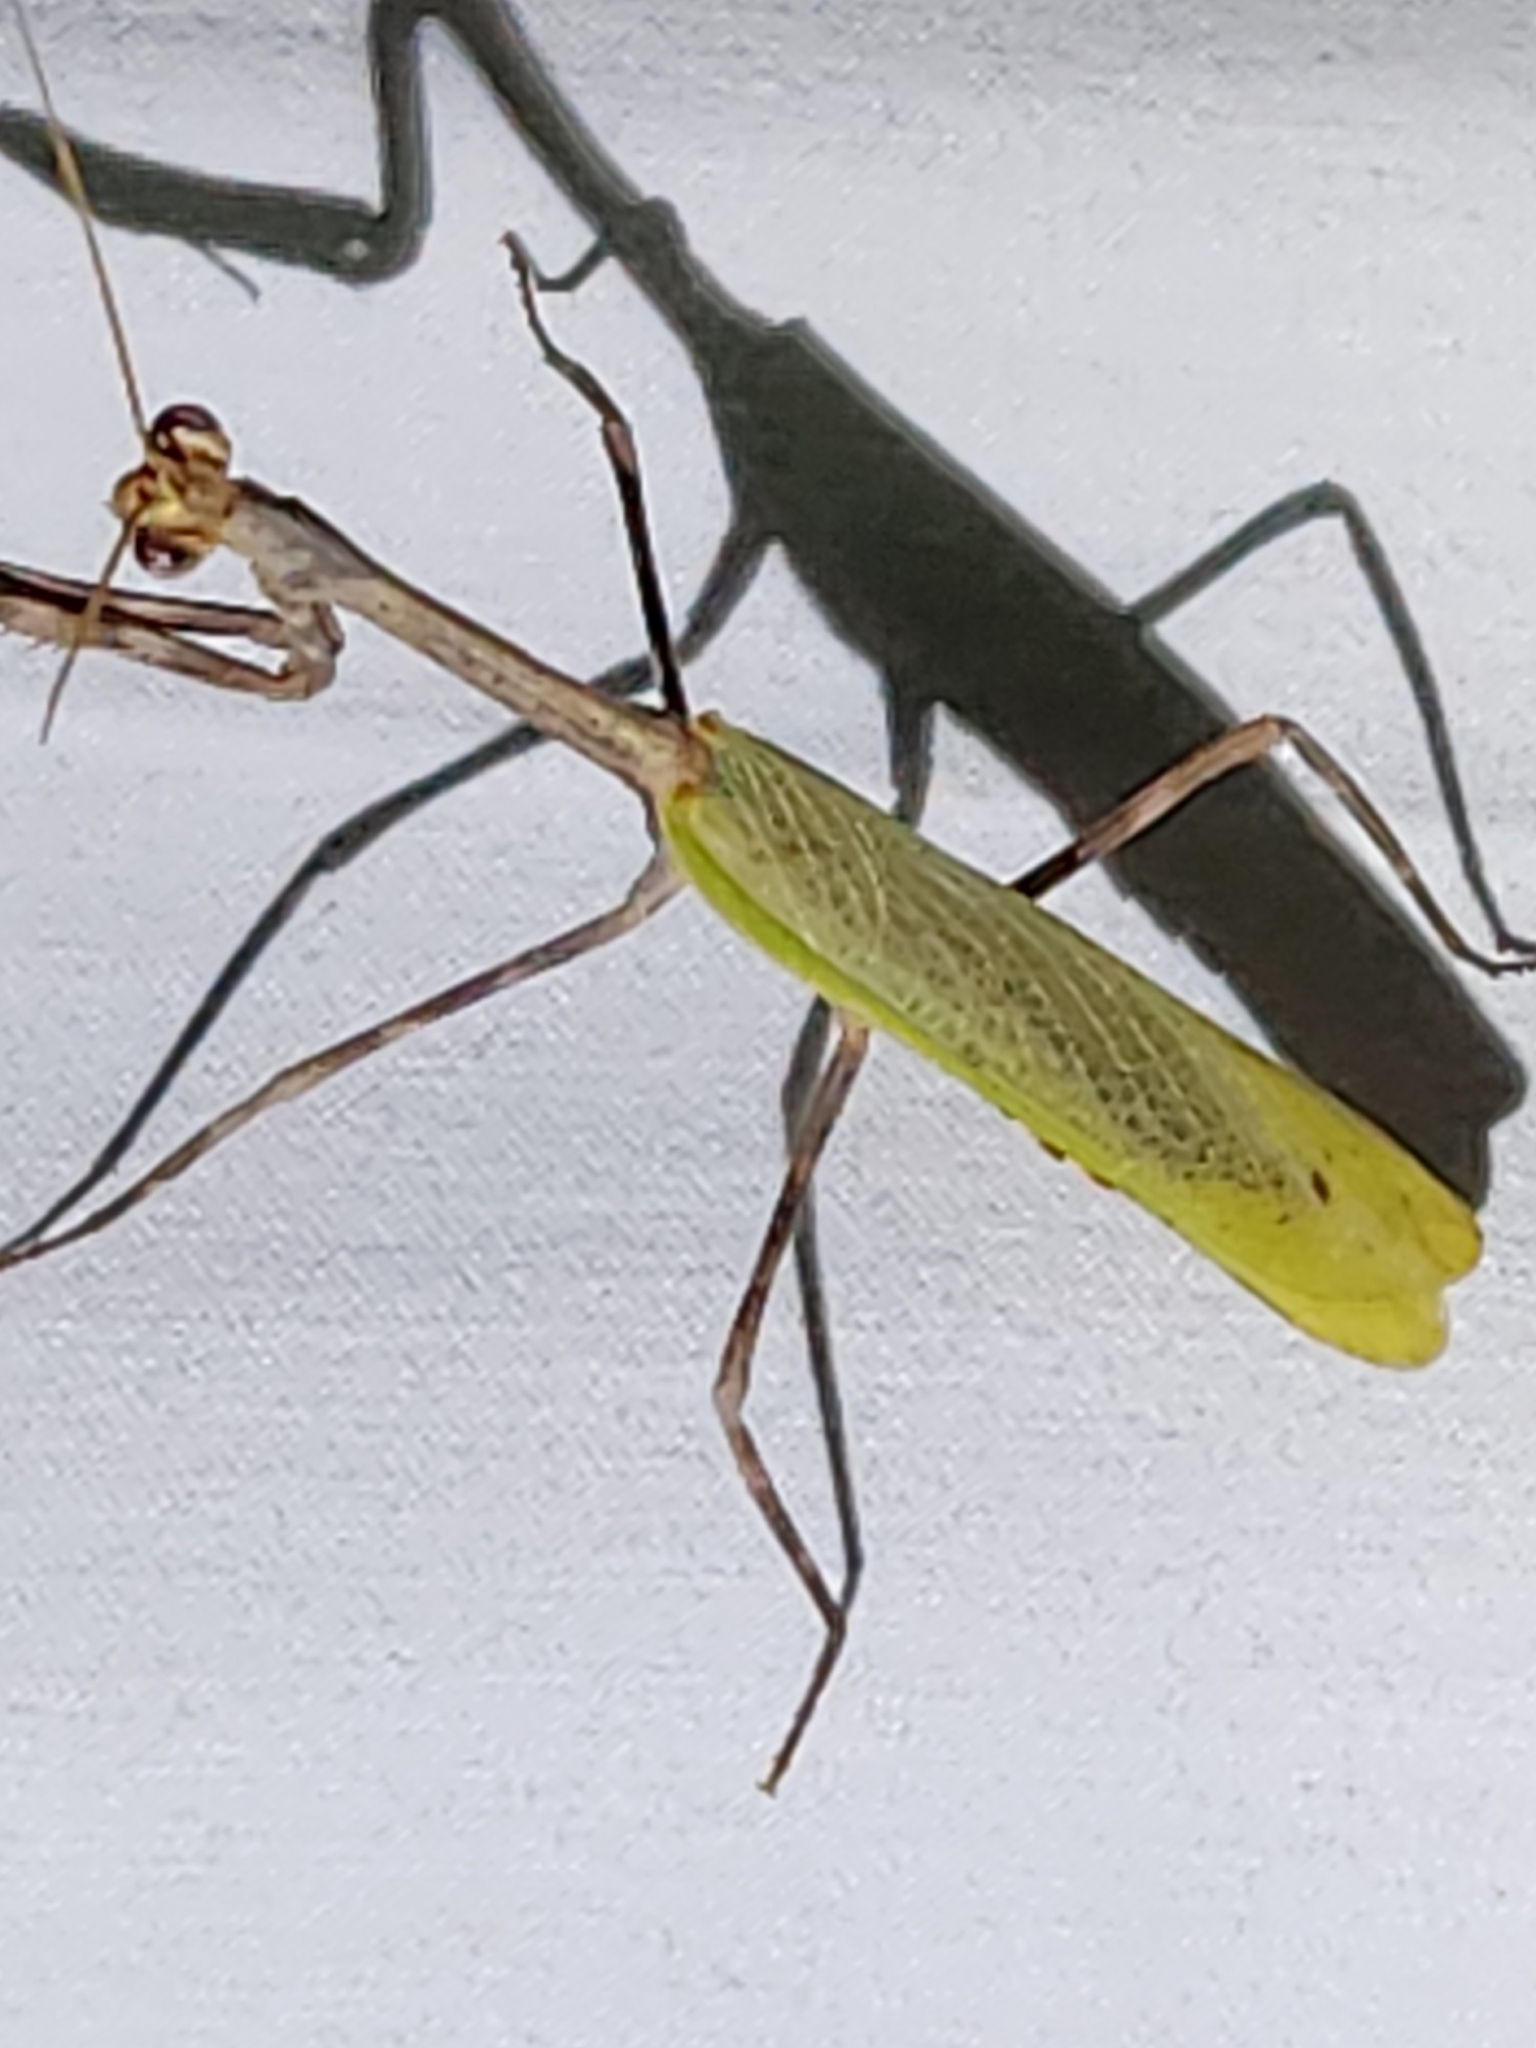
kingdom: Animalia
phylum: Arthropoda
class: Insecta
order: Mantodea
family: Mantidae
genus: Pseudovates
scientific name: Pseudovates chlorophaea
